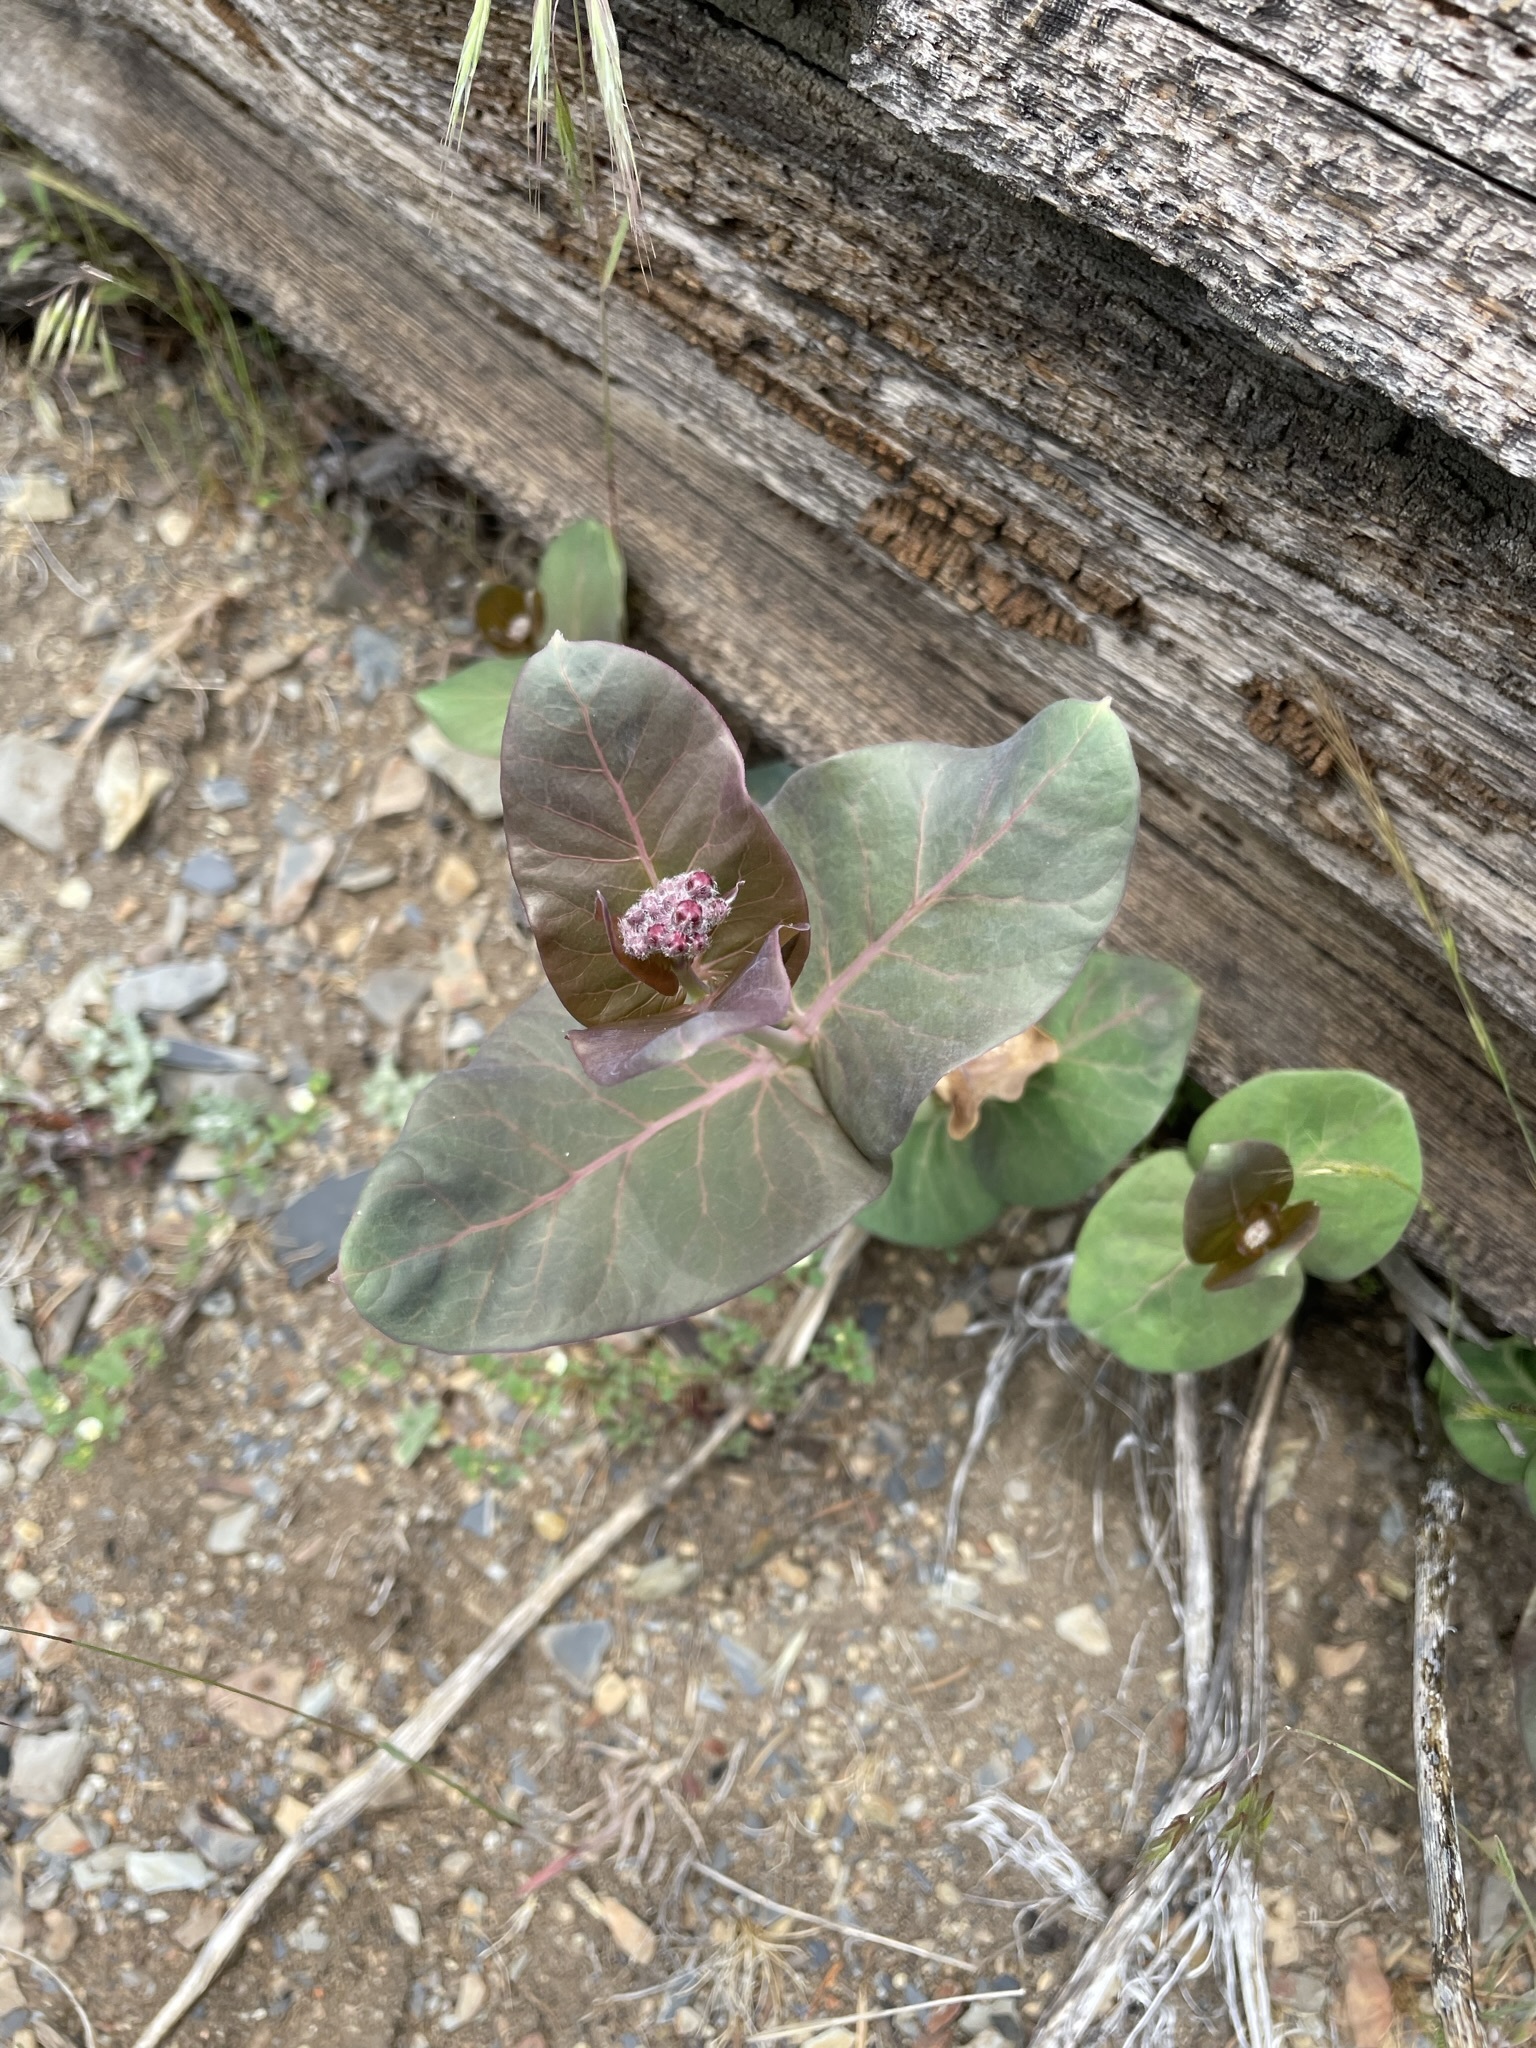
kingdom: Plantae
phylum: Tracheophyta
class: Magnoliopsida
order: Gentianales
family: Apocynaceae
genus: Asclepias
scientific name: Asclepias cordifolia
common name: Purple milkweed
